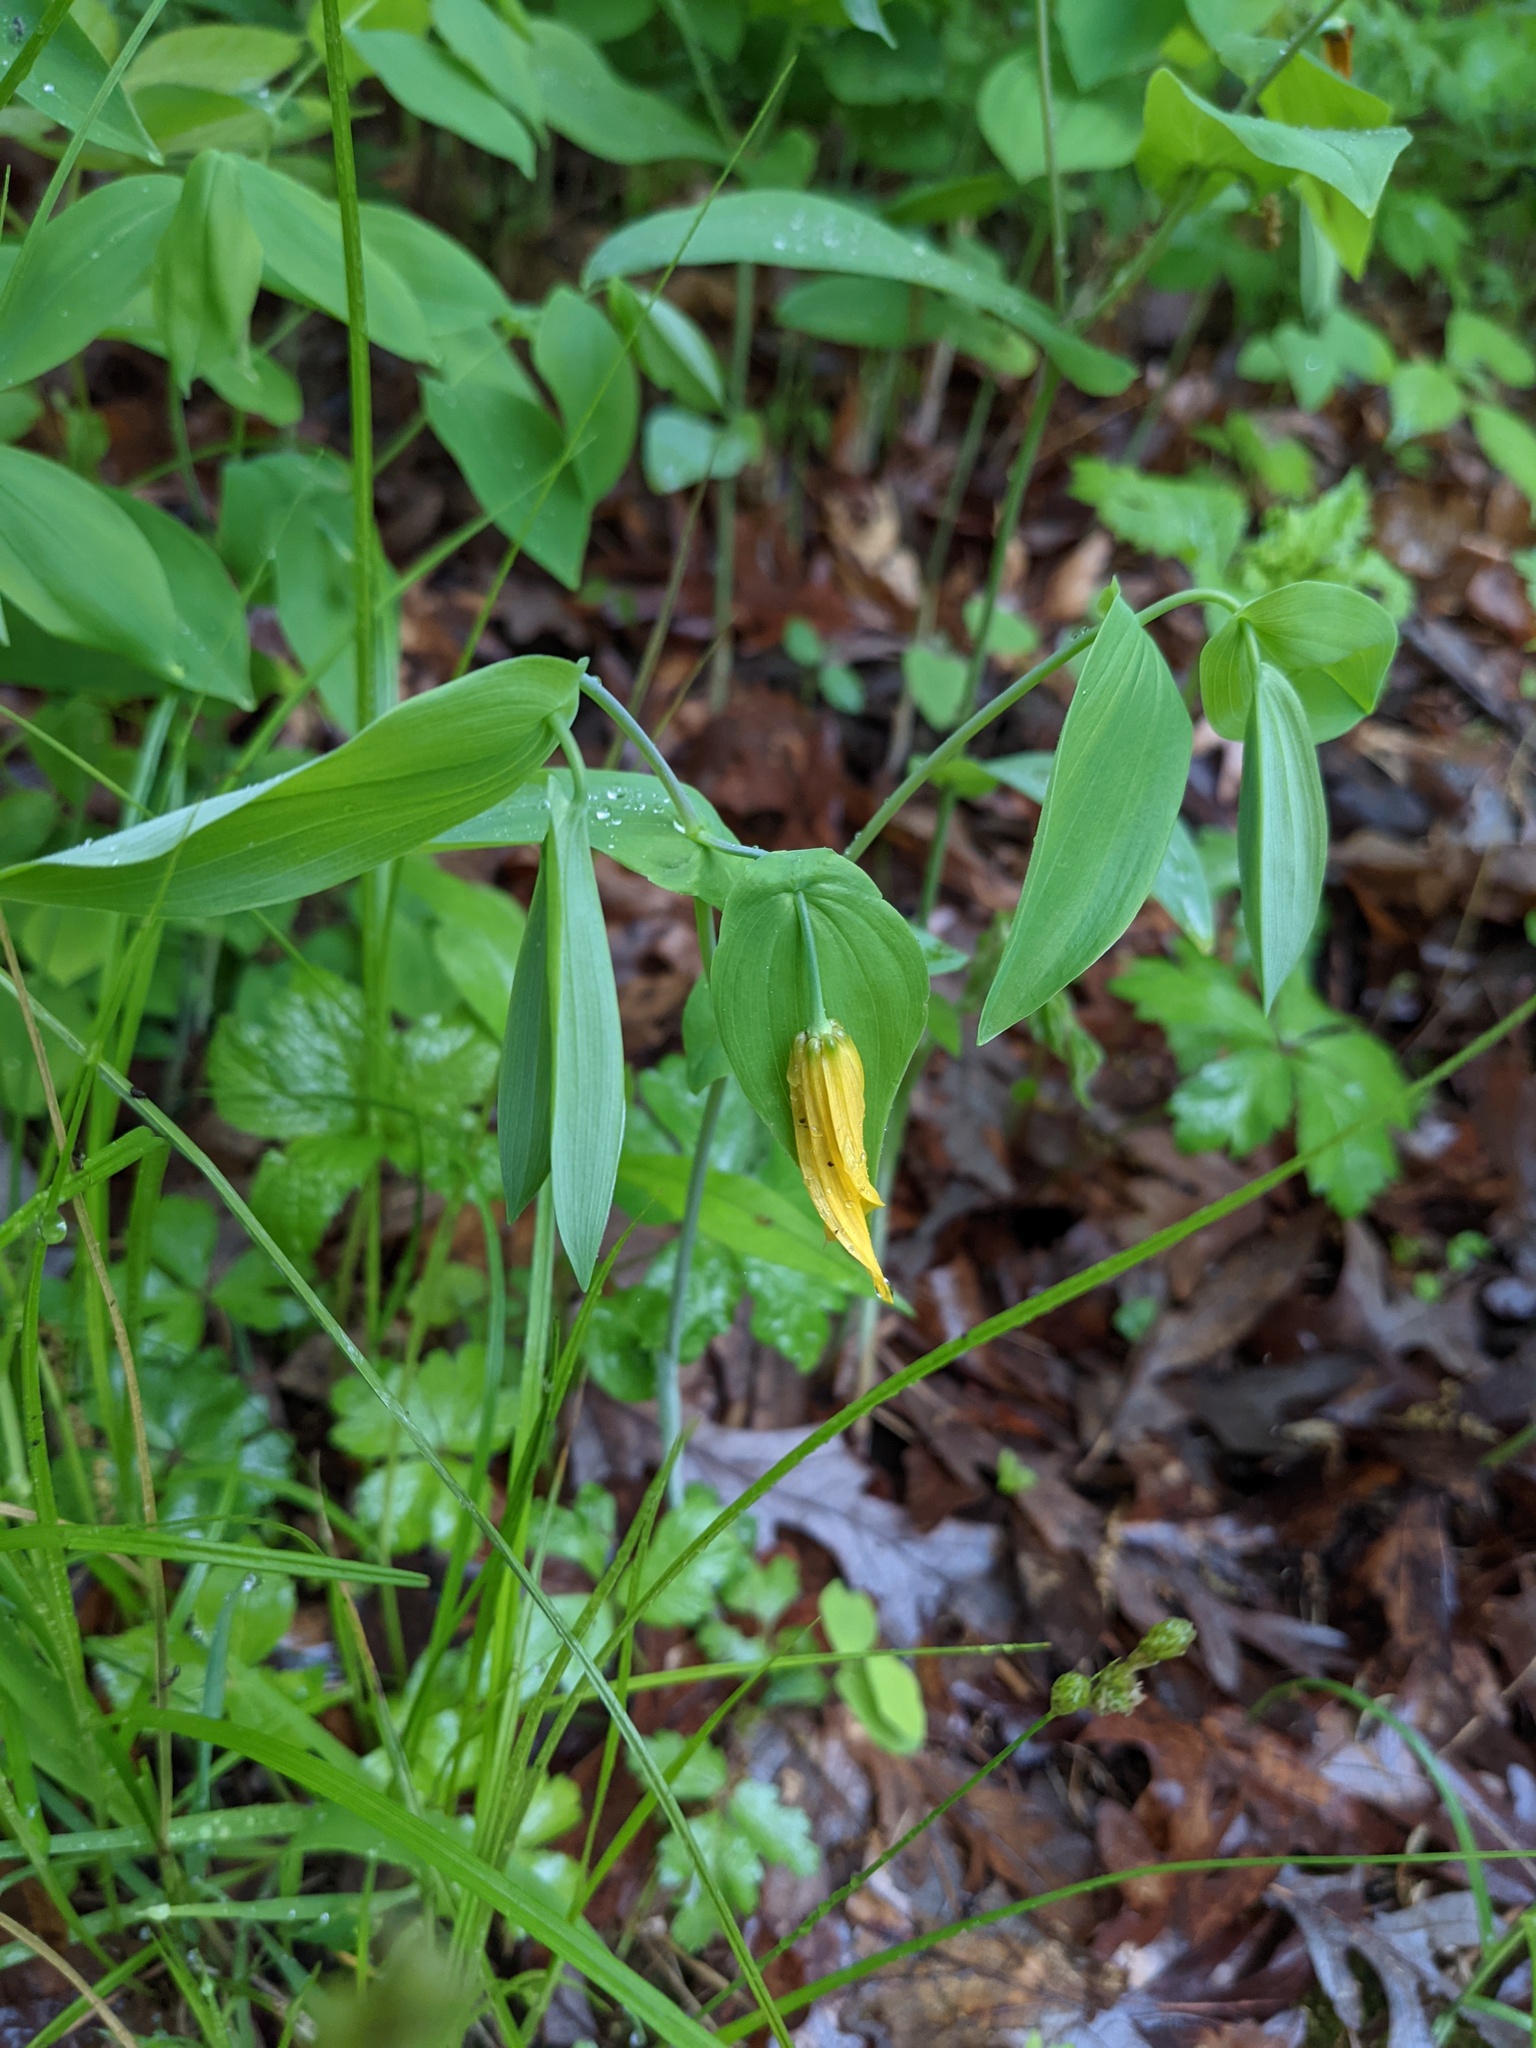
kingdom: Plantae
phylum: Tracheophyta
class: Liliopsida
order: Liliales
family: Colchicaceae
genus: Uvularia
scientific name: Uvularia grandiflora
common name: Bellwort
